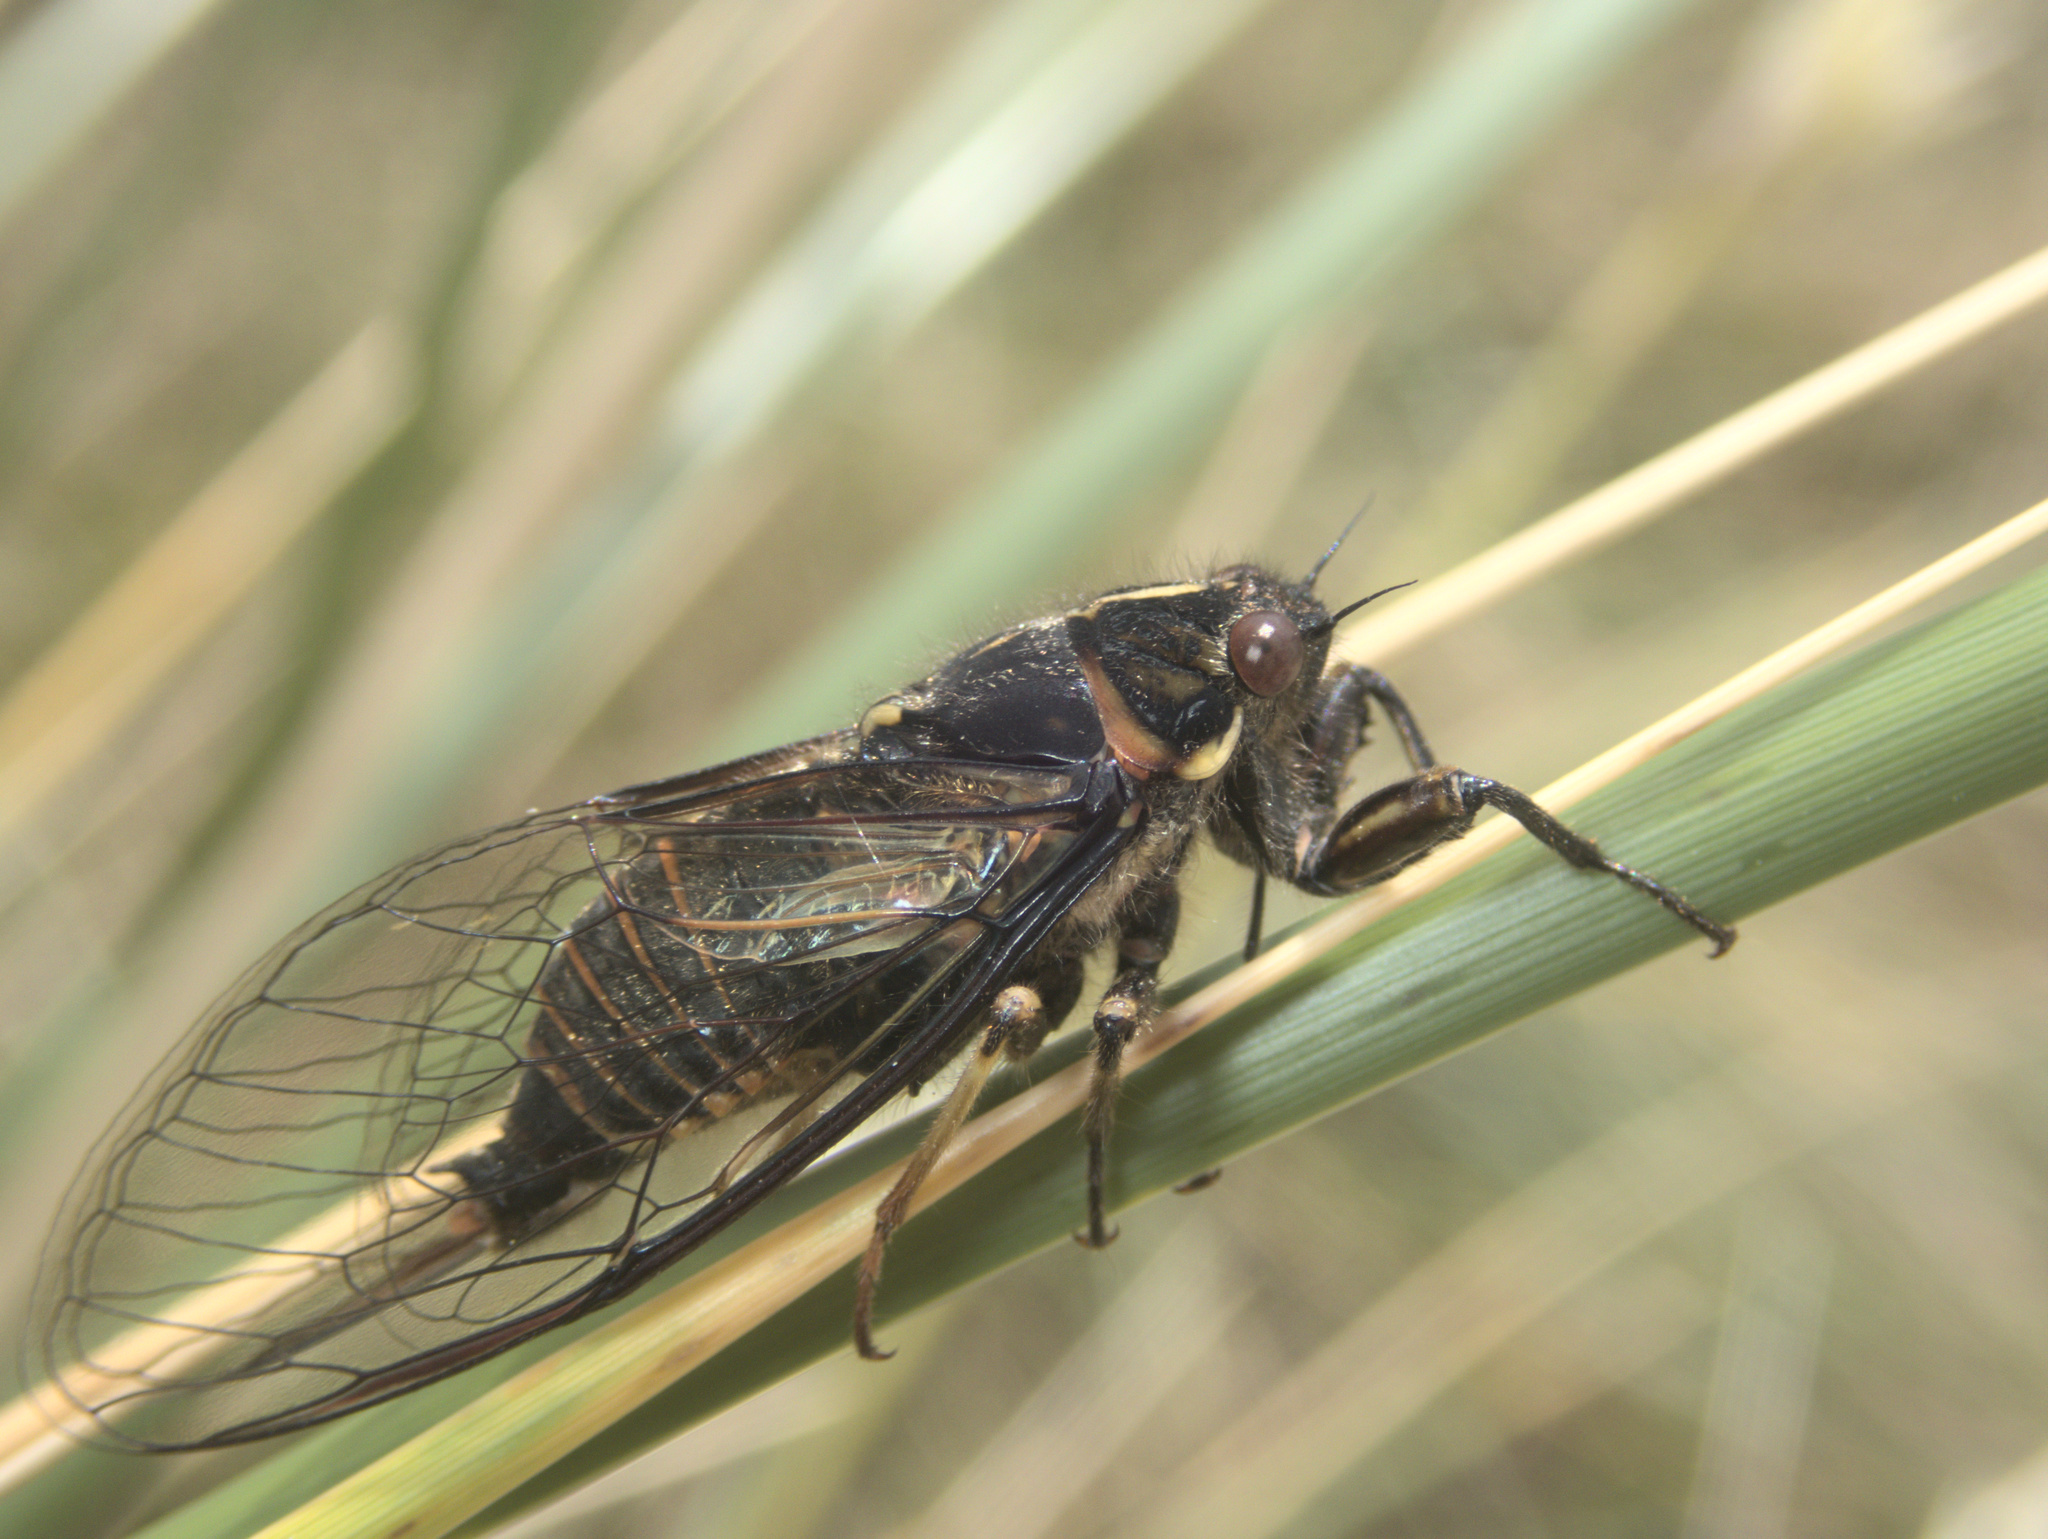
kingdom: Animalia
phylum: Arthropoda
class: Insecta
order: Hemiptera
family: Cicadidae
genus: Kikihia
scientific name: Kikihia longula
